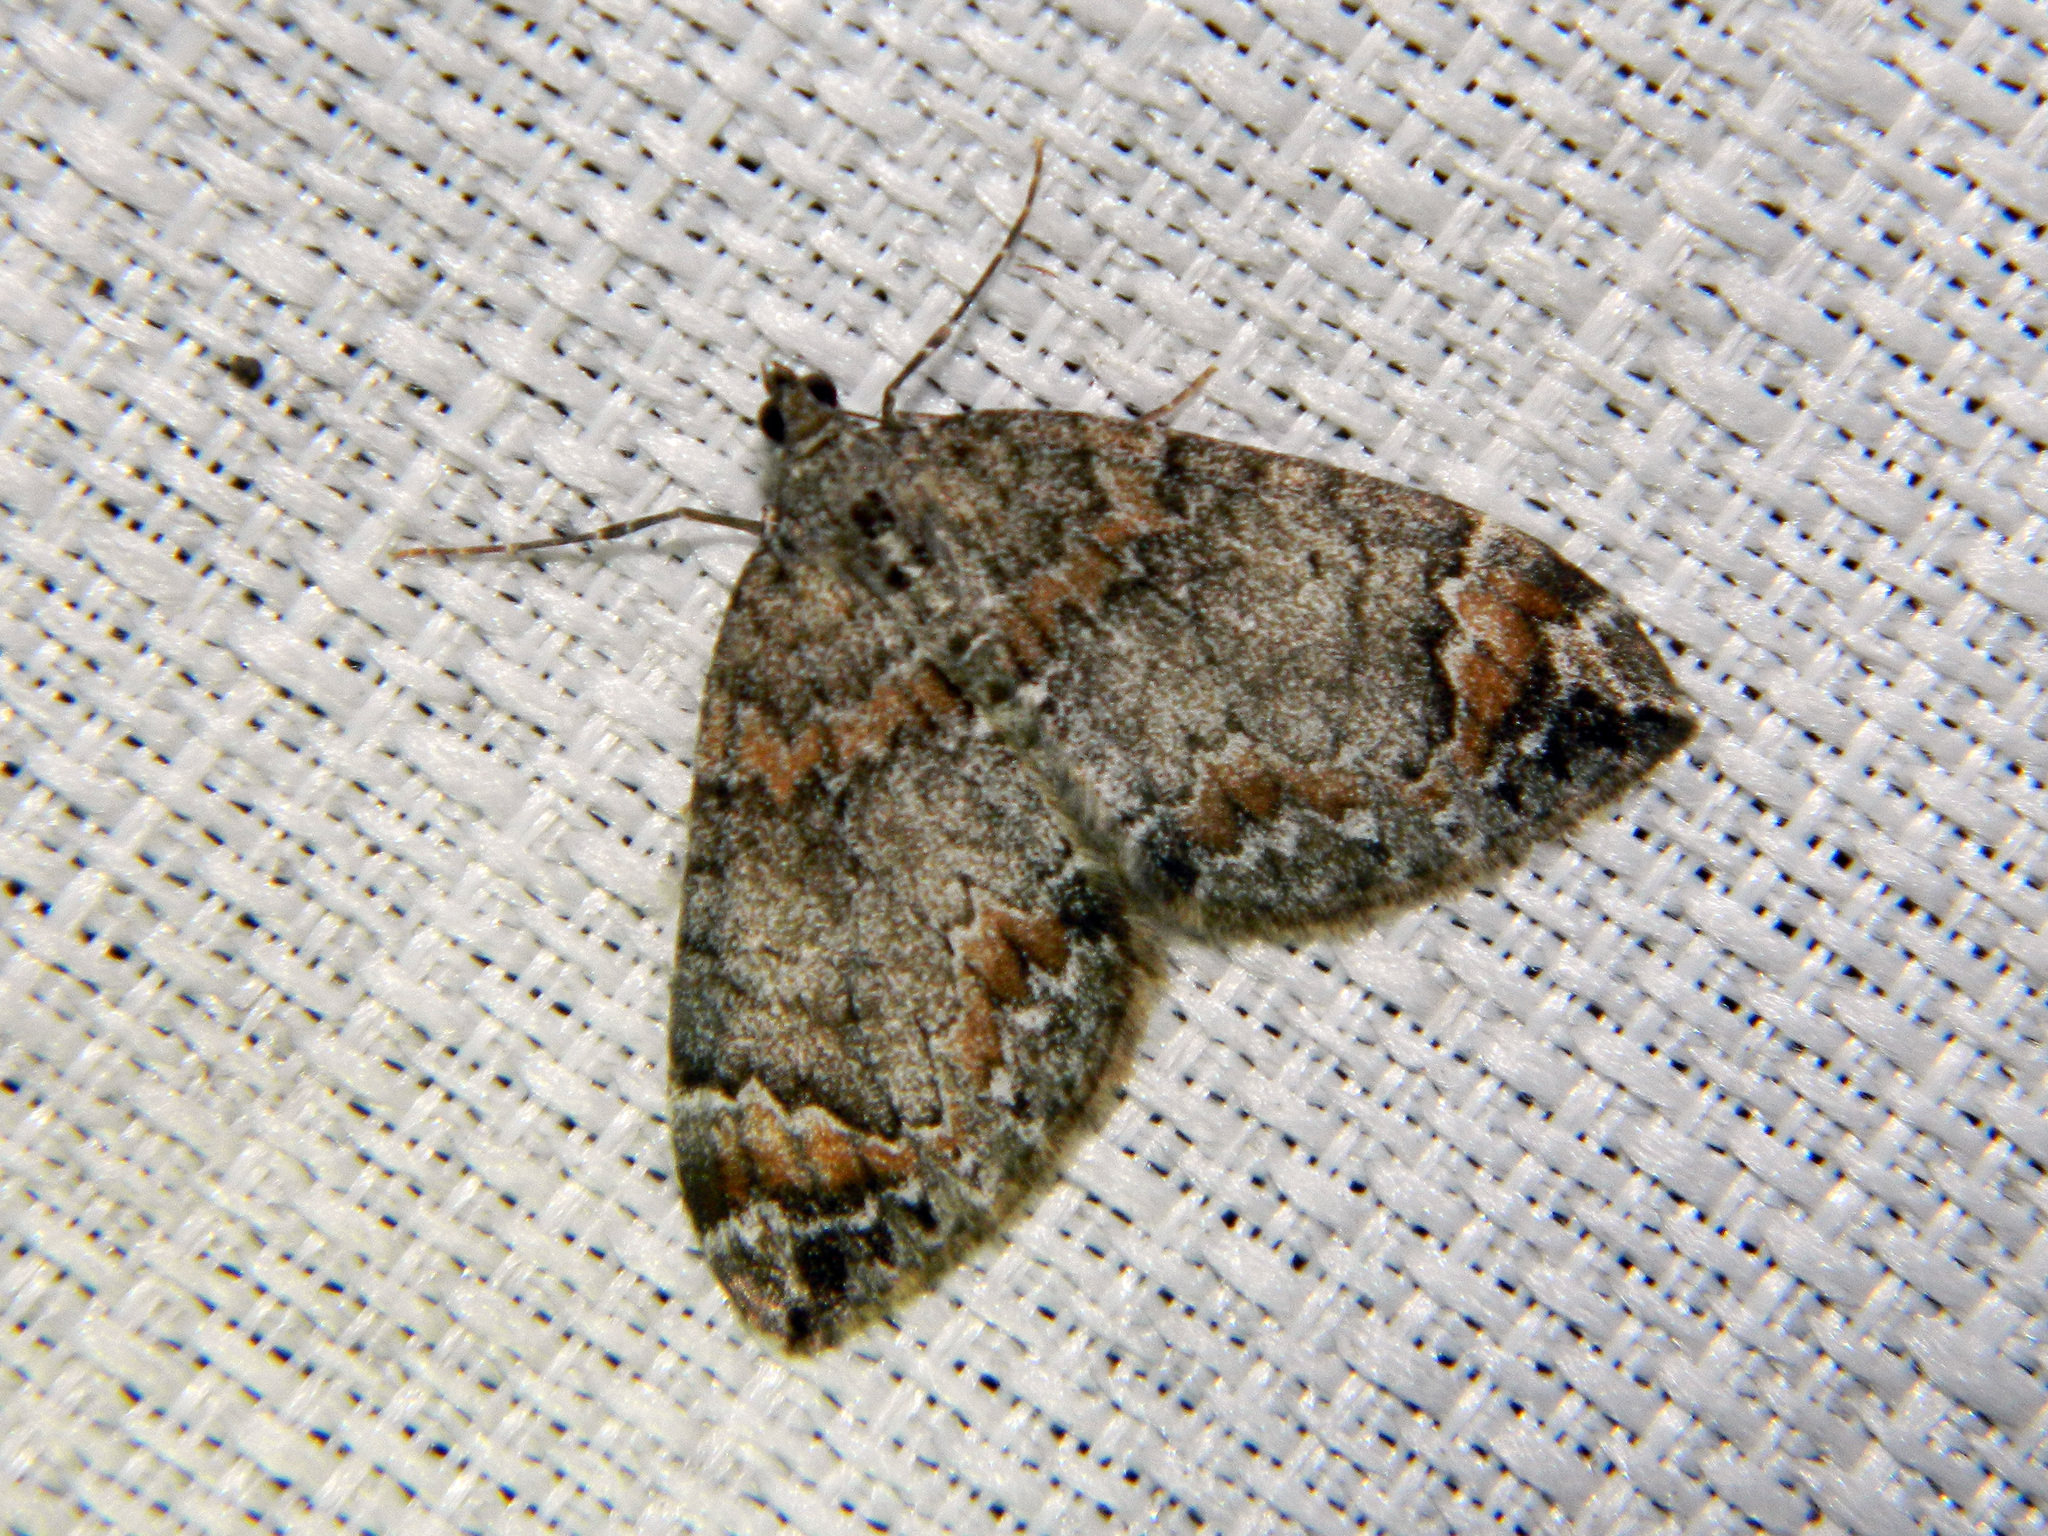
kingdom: Animalia
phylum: Arthropoda
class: Insecta
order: Lepidoptera
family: Geometridae
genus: Dysstroma
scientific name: Dysstroma citrata
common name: Dark marbled carpet
